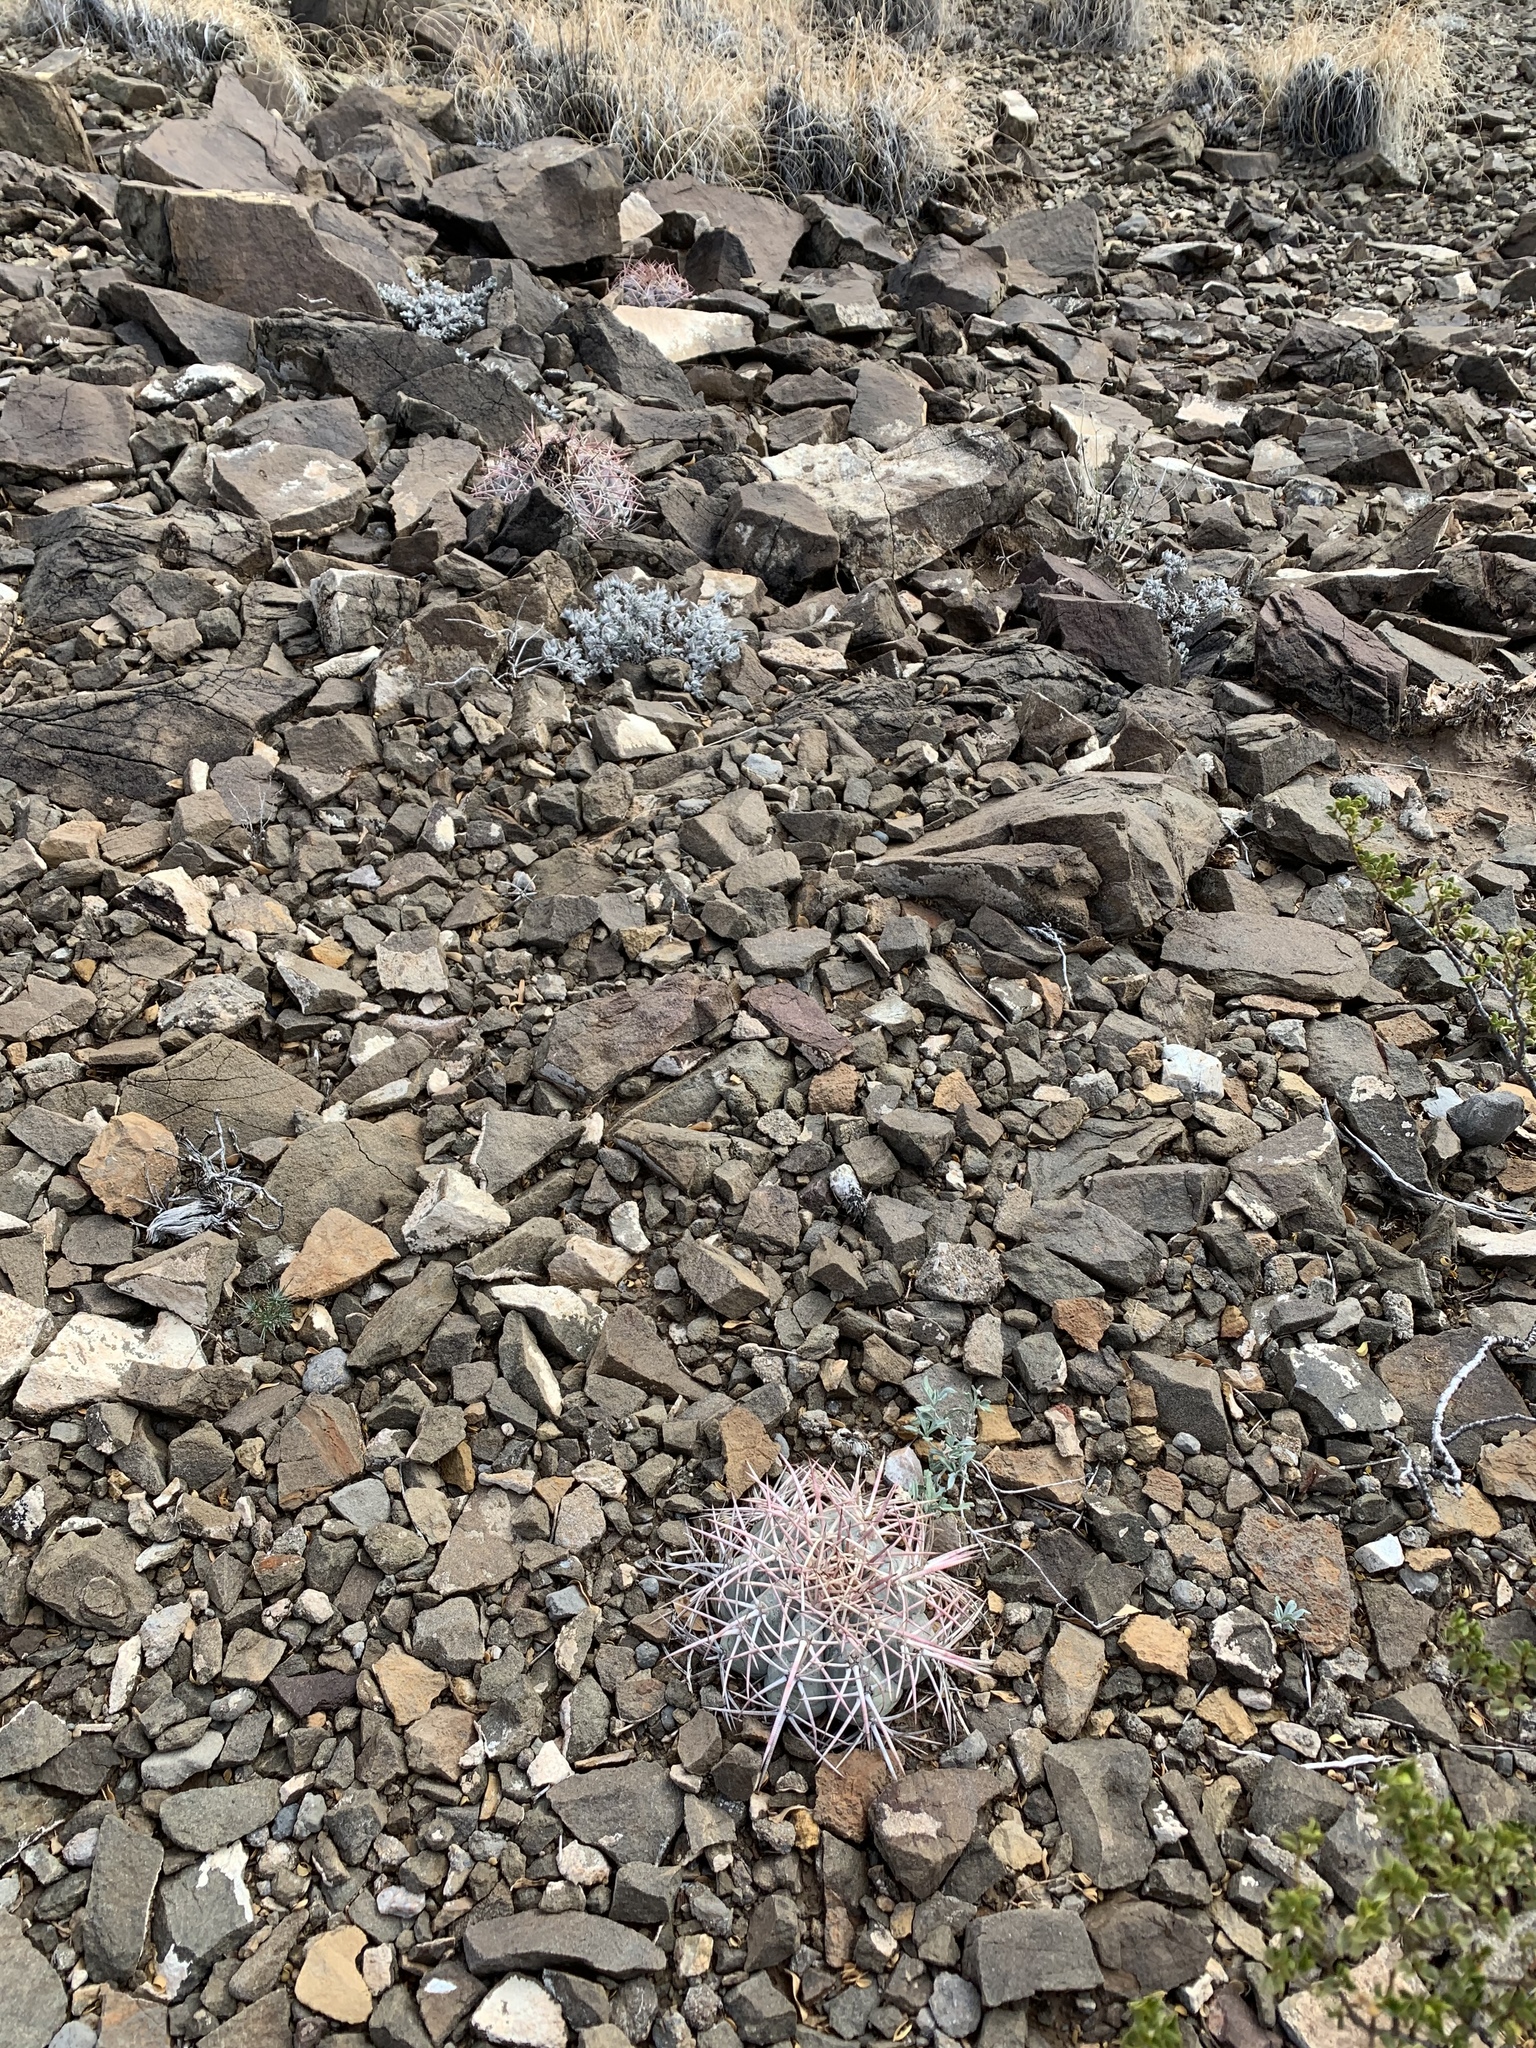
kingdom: Plantae
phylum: Tracheophyta
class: Magnoliopsida
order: Caryophyllales
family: Cactaceae
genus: Echinocactus
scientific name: Echinocactus horizonthalonius
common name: Devilshead
